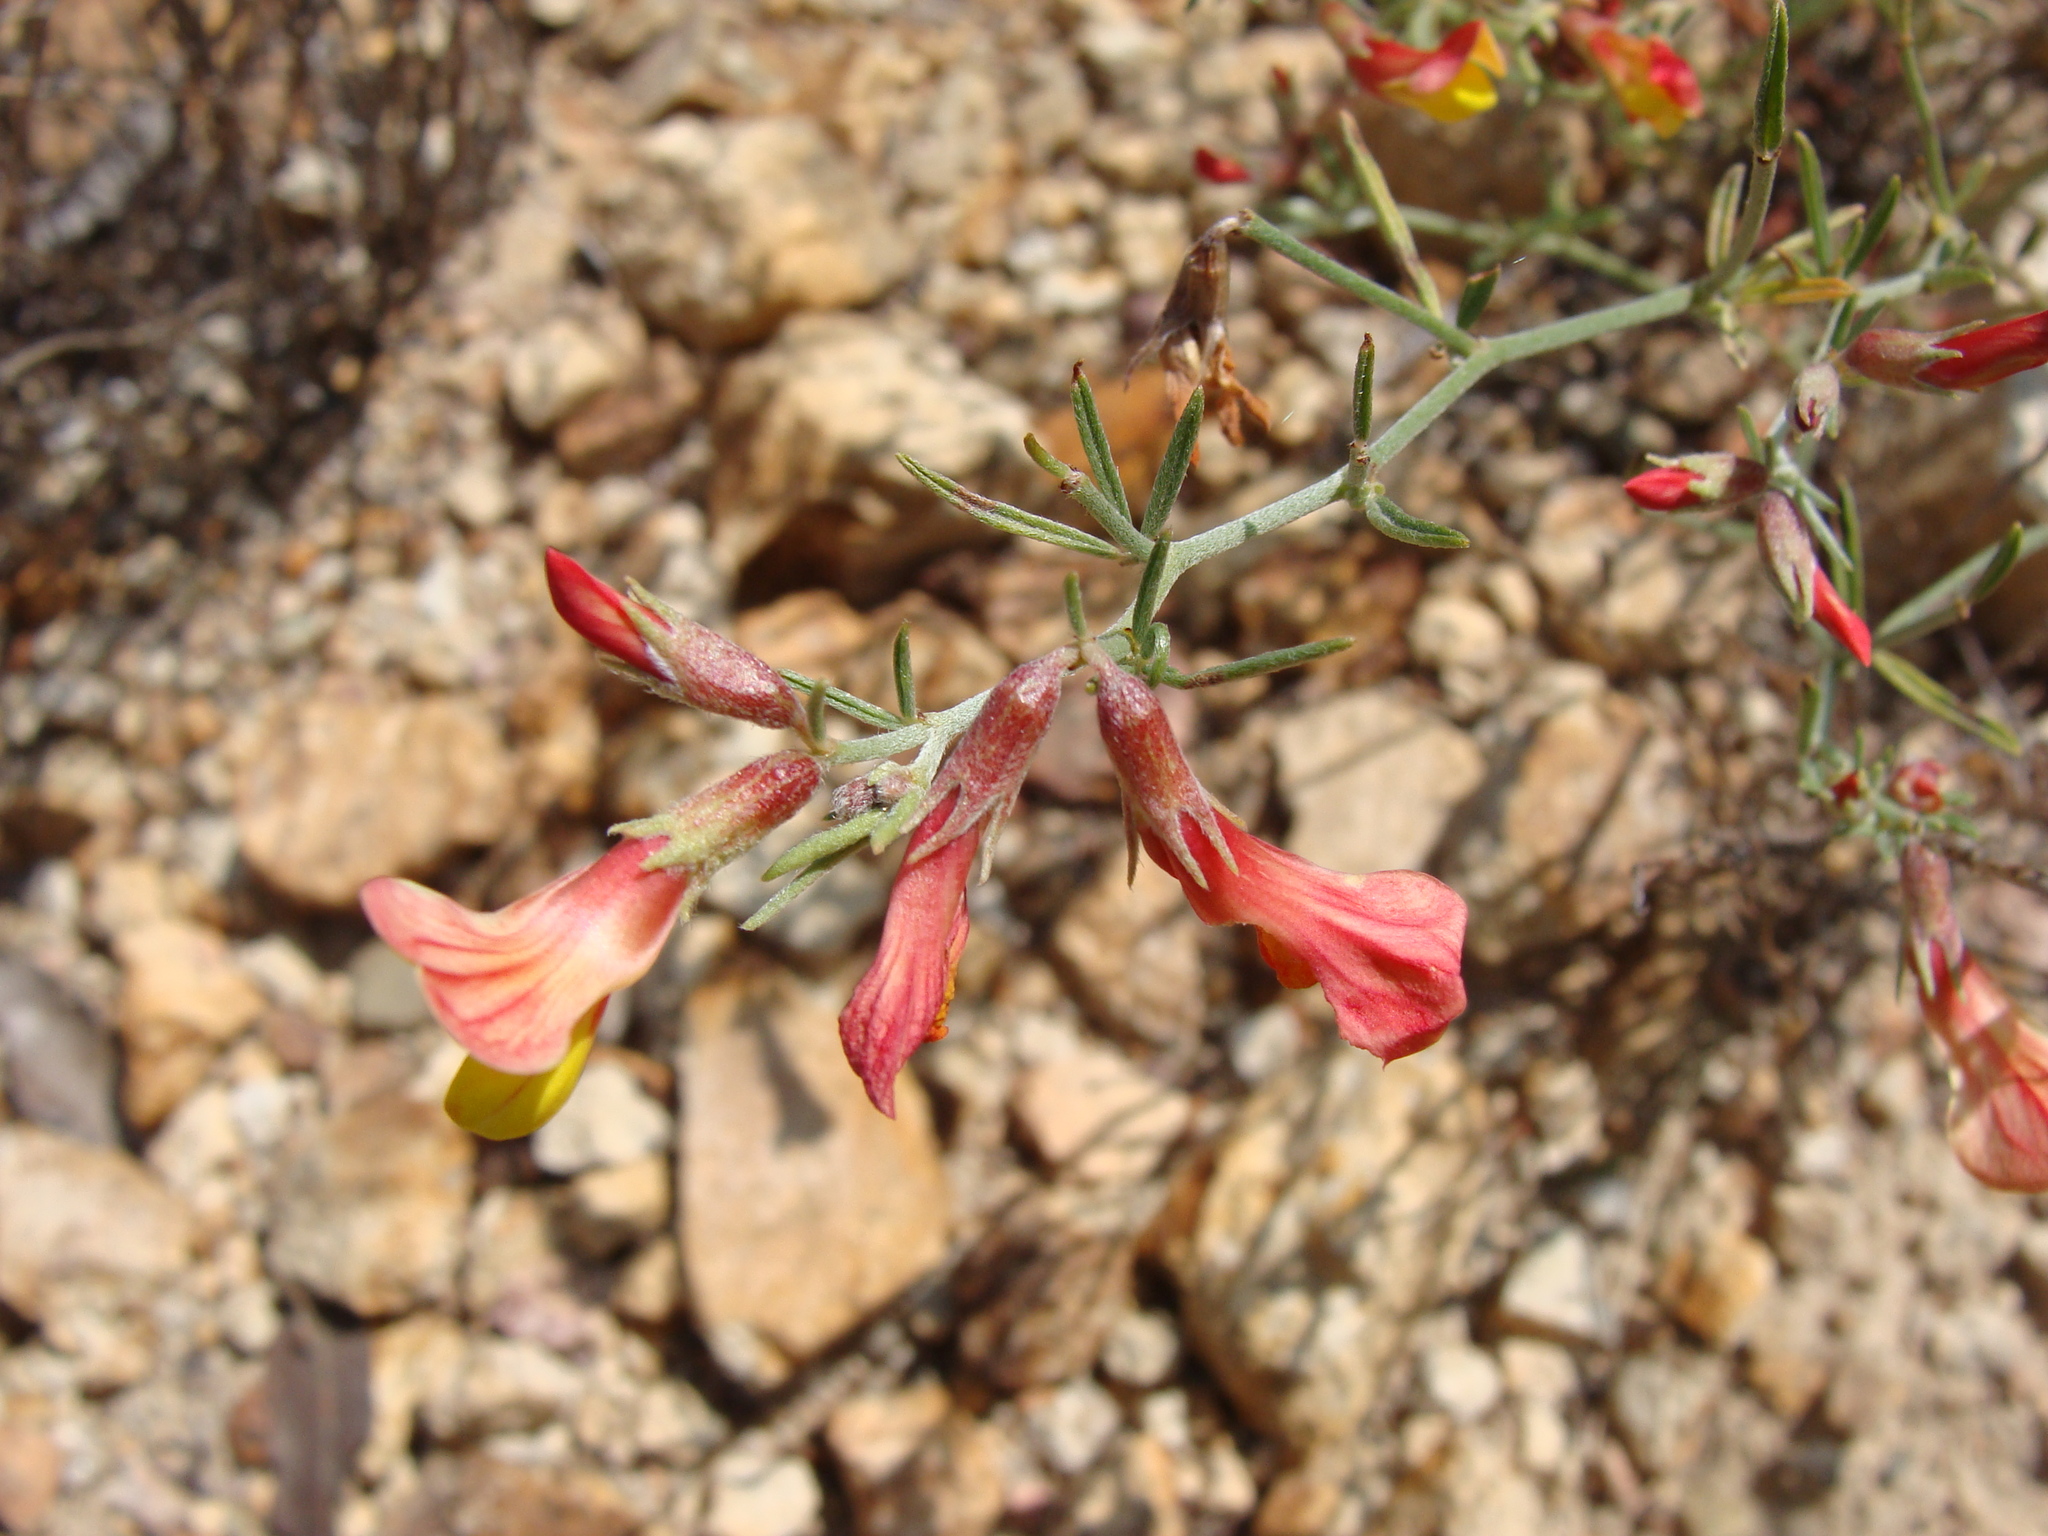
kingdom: Plantae
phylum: Tracheophyta
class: Magnoliopsida
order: Fabales
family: Fabaceae
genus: Acmispon
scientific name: Acmispon oroboides
